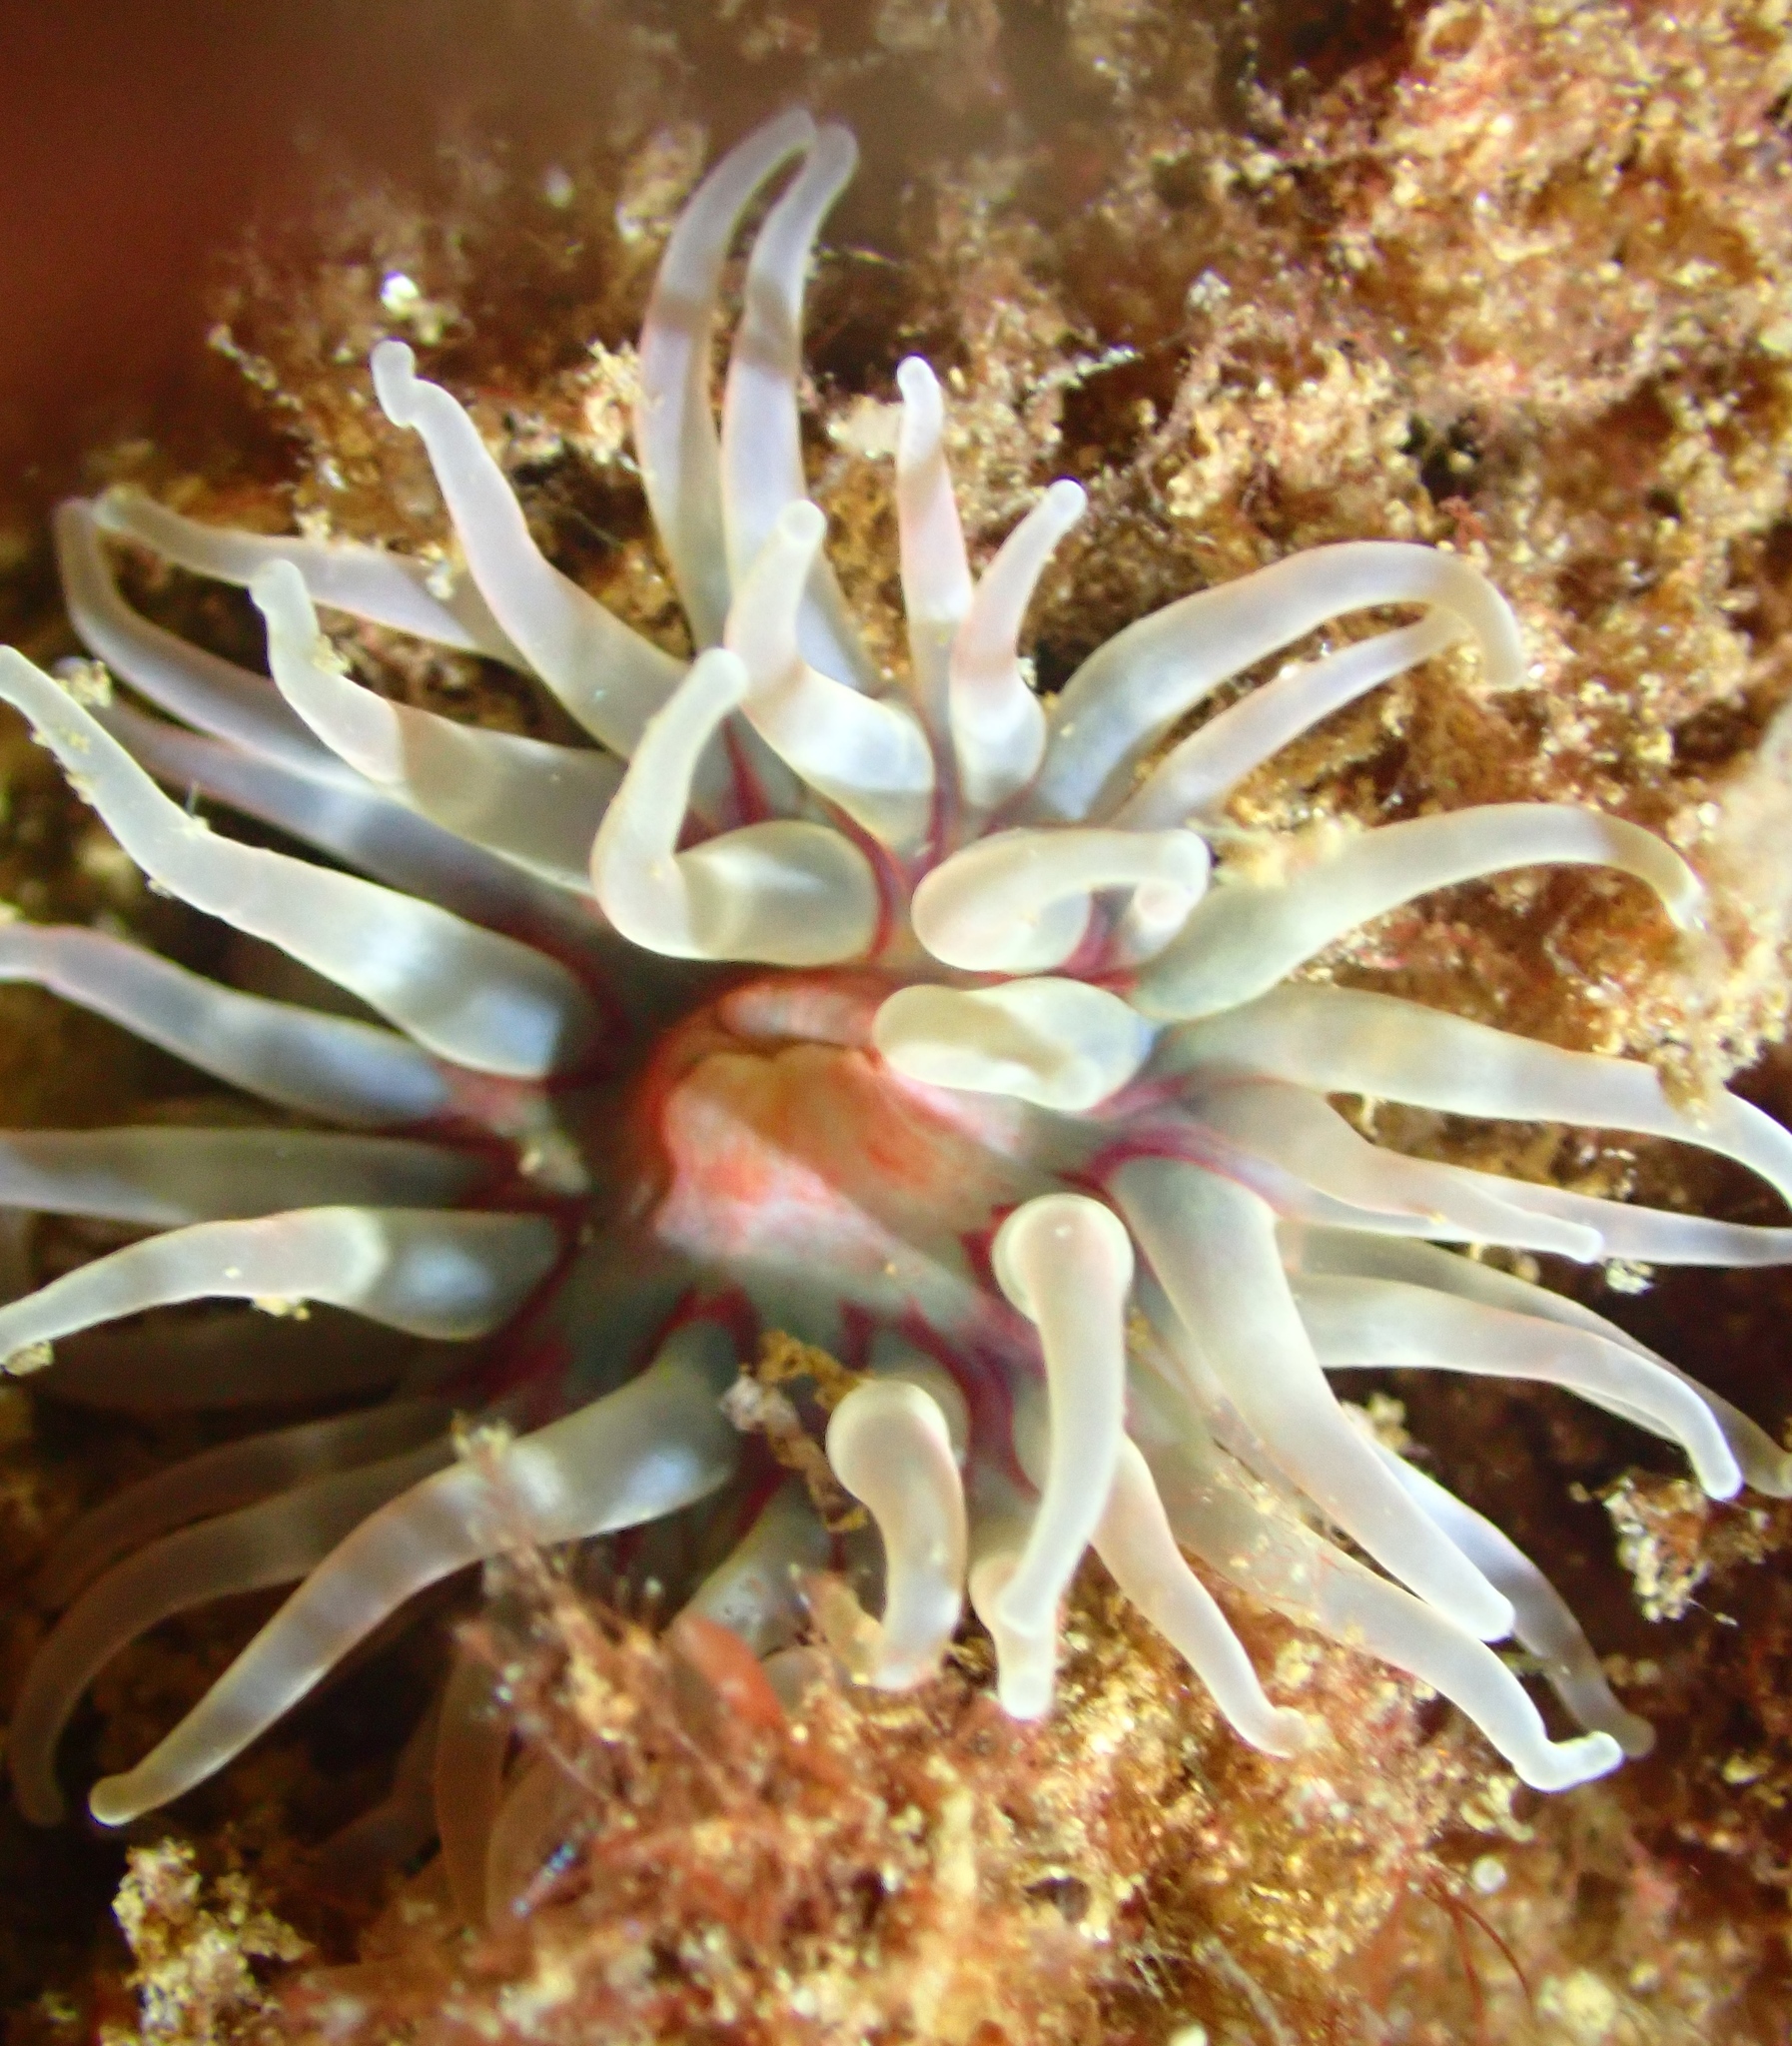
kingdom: Animalia
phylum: Cnidaria
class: Anthozoa
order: Actiniaria
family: Actiniidae
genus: Urticina
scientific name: Urticina felina
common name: Dahlia anemone
